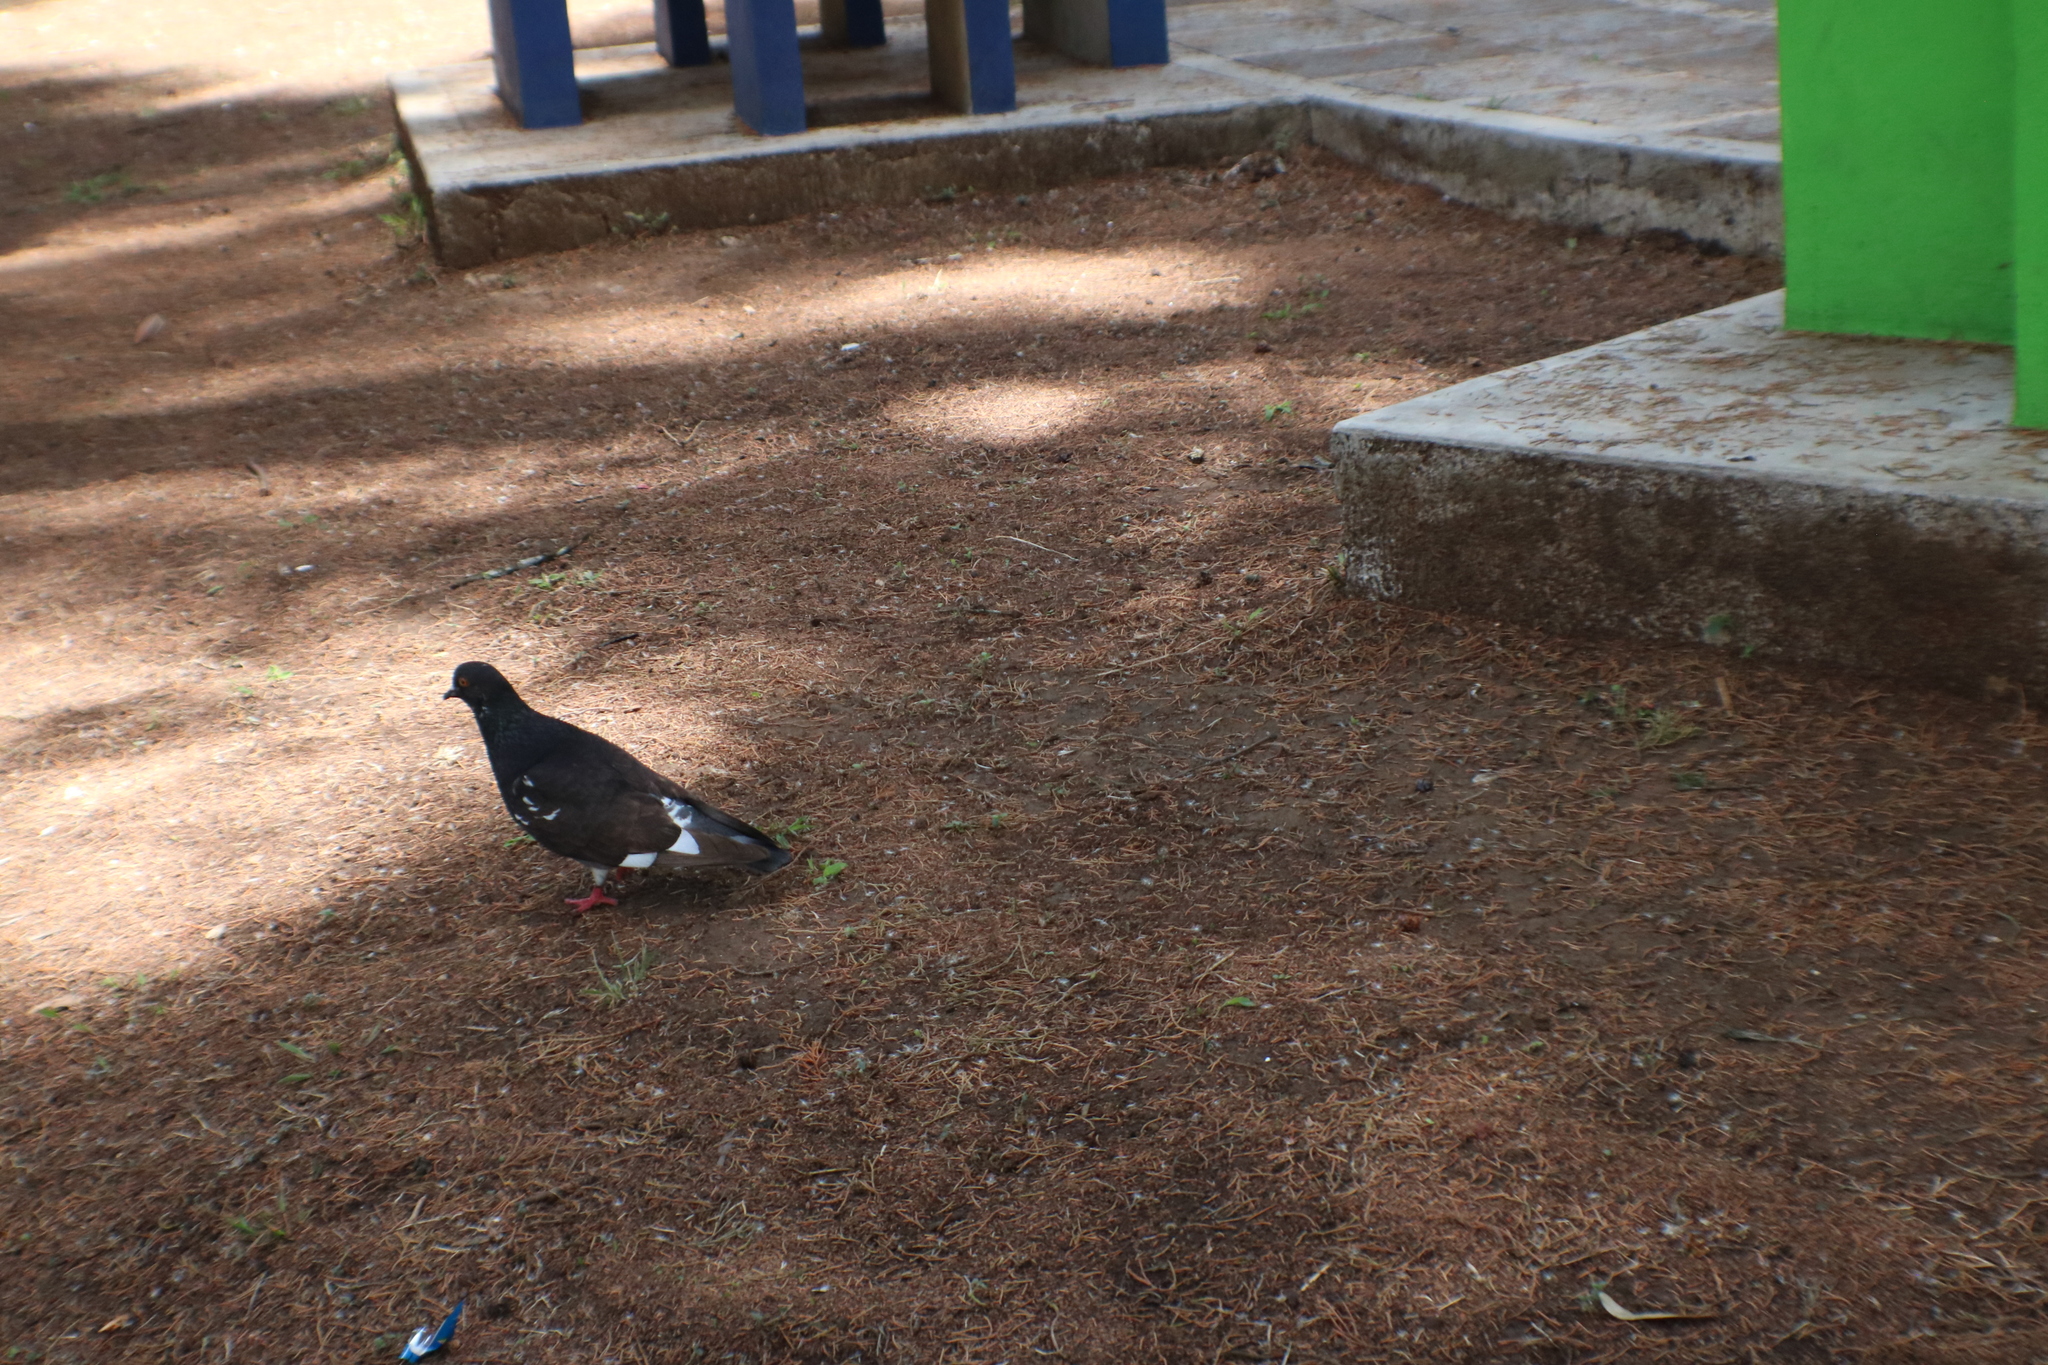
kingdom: Animalia
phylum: Chordata
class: Aves
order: Columbiformes
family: Columbidae
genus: Columba
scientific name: Columba livia
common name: Rock pigeon
